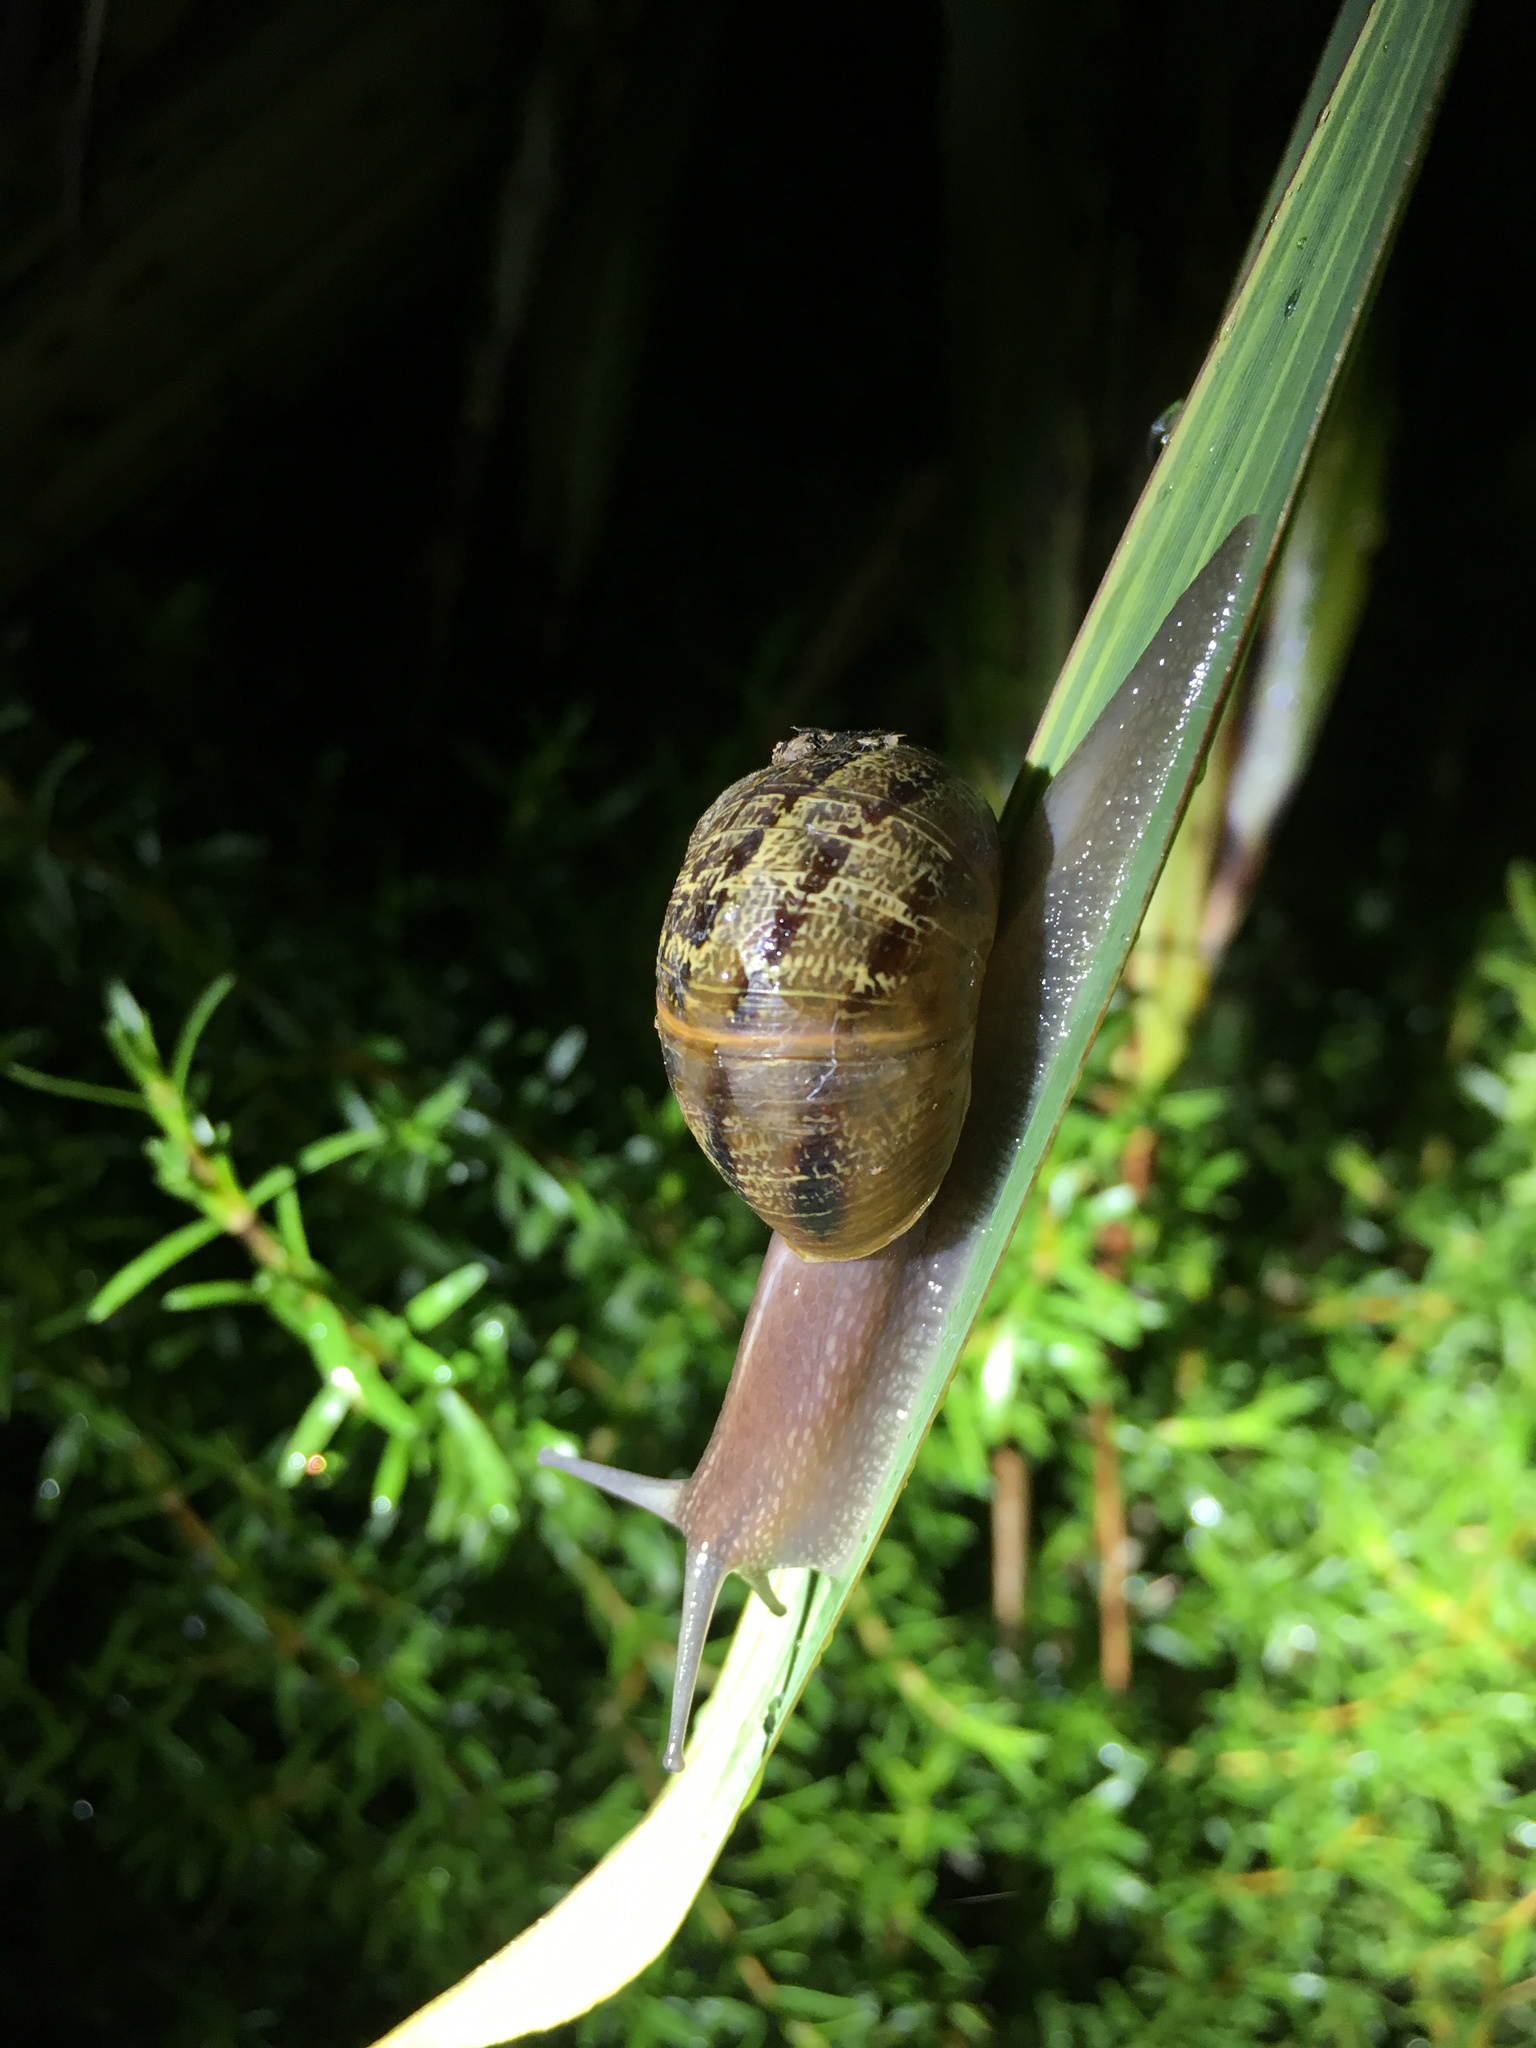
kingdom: Animalia
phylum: Mollusca
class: Gastropoda
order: Stylommatophora
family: Helicidae
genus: Cornu
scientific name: Cornu aspersum
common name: Brown garden snail
